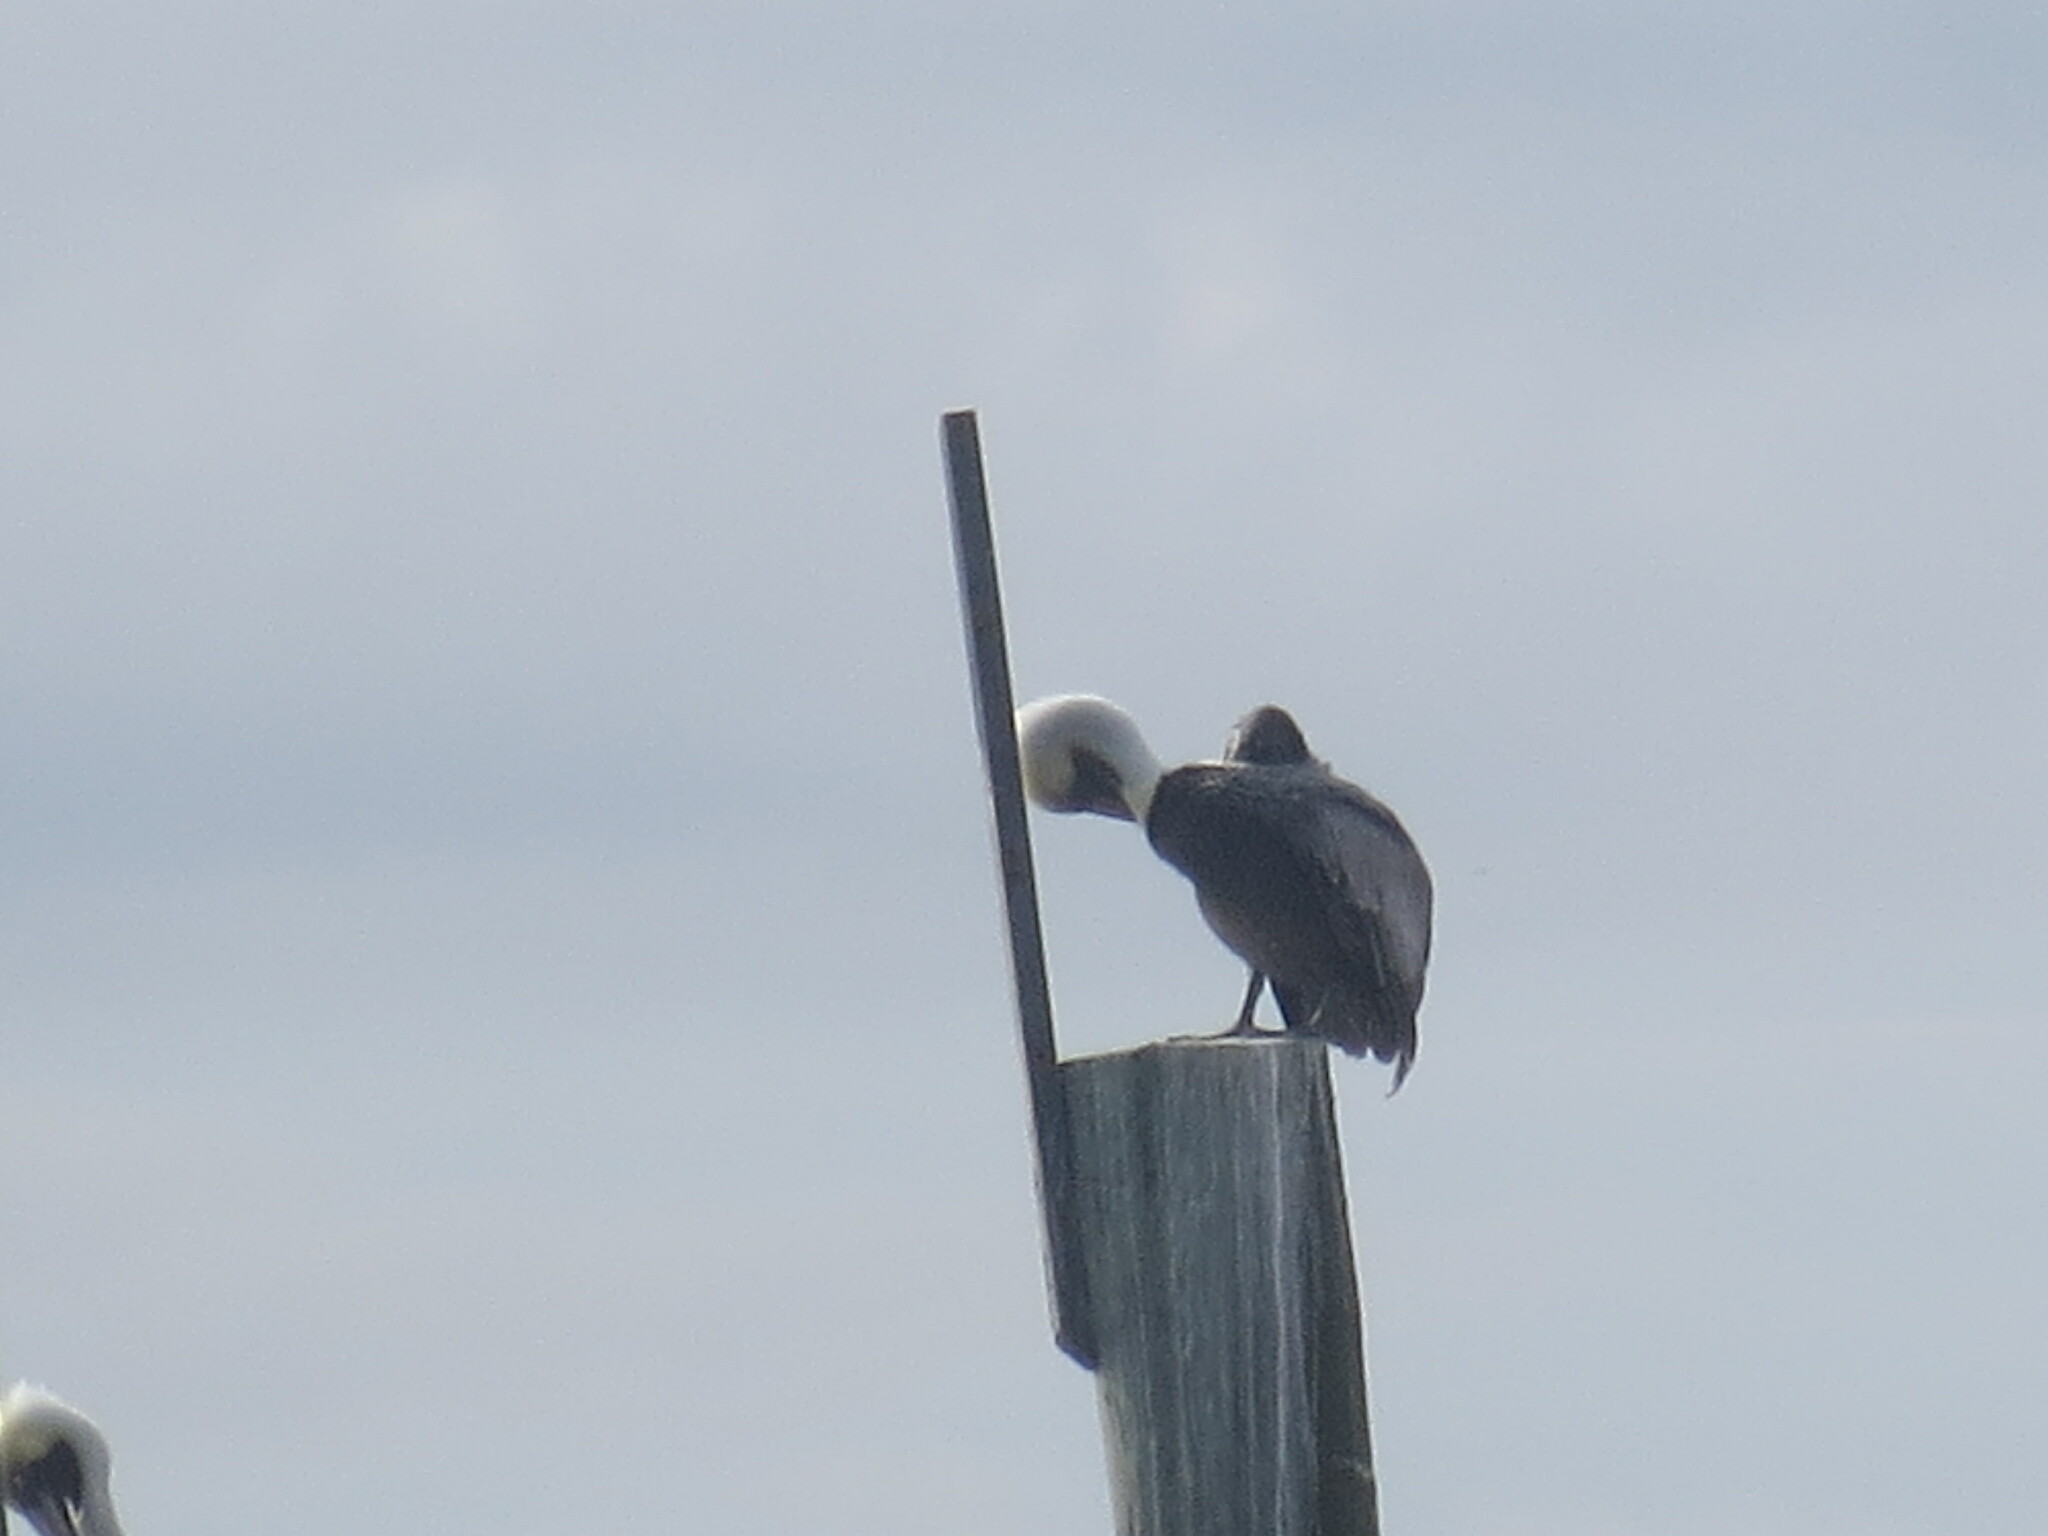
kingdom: Animalia
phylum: Chordata
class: Aves
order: Pelecaniformes
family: Pelecanidae
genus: Pelecanus
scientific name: Pelecanus occidentalis
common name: Brown pelican
